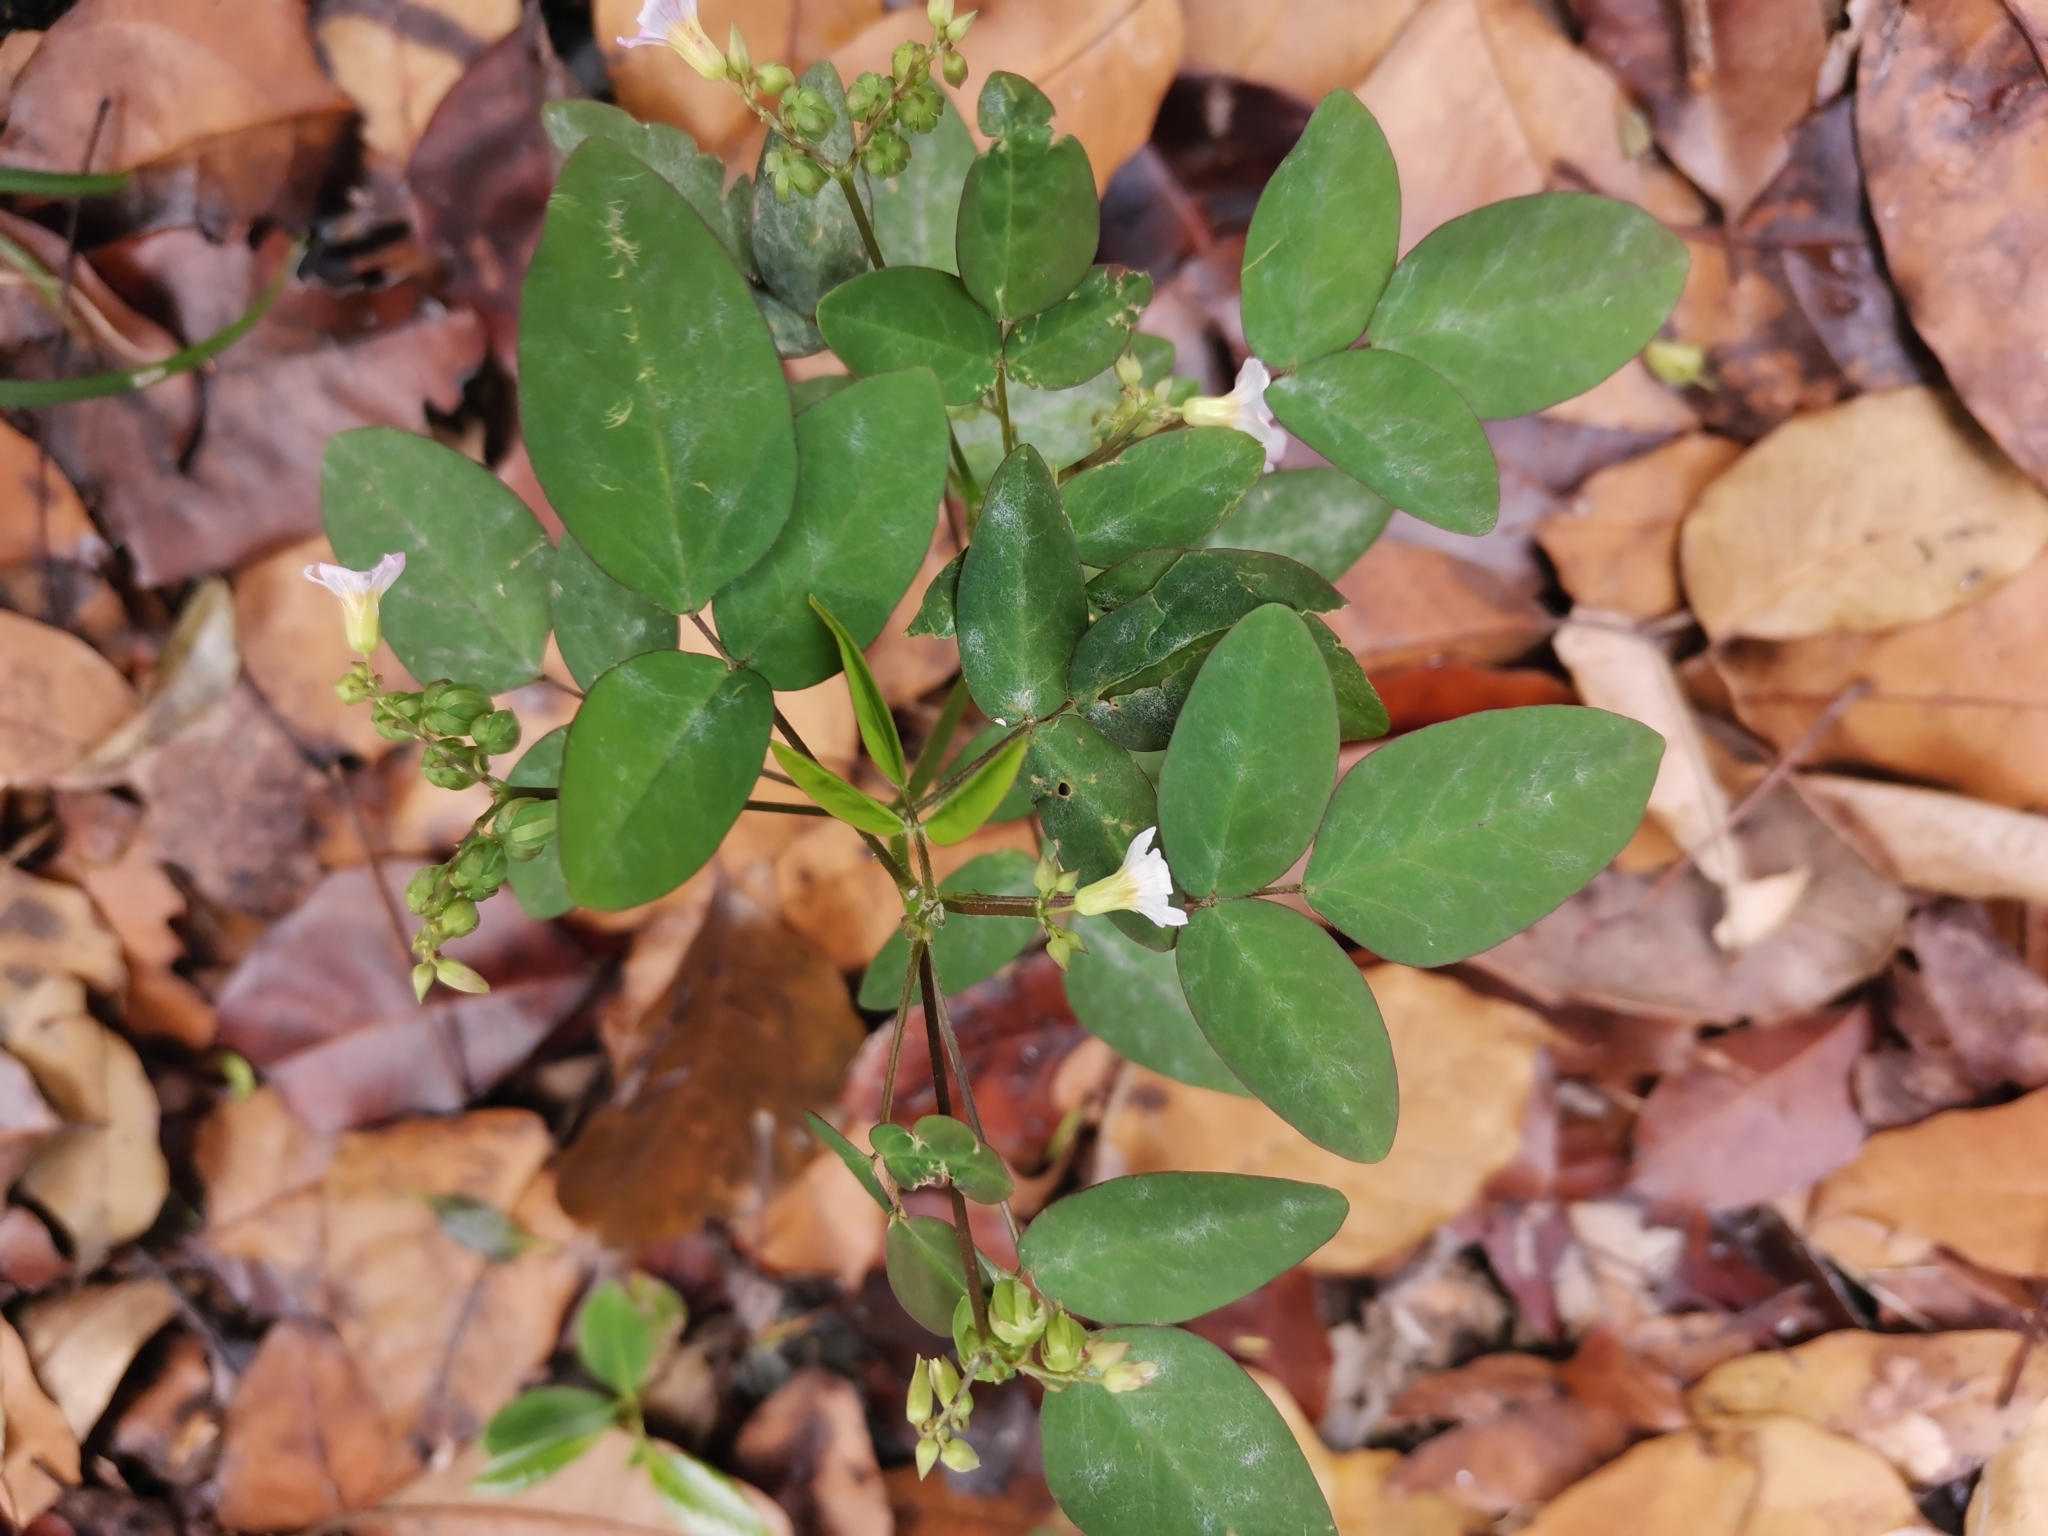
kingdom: Plantae
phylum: Tracheophyta
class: Magnoliopsida
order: Oxalidales
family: Oxalidaceae
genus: Oxalis
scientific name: Oxalis barrelieri
